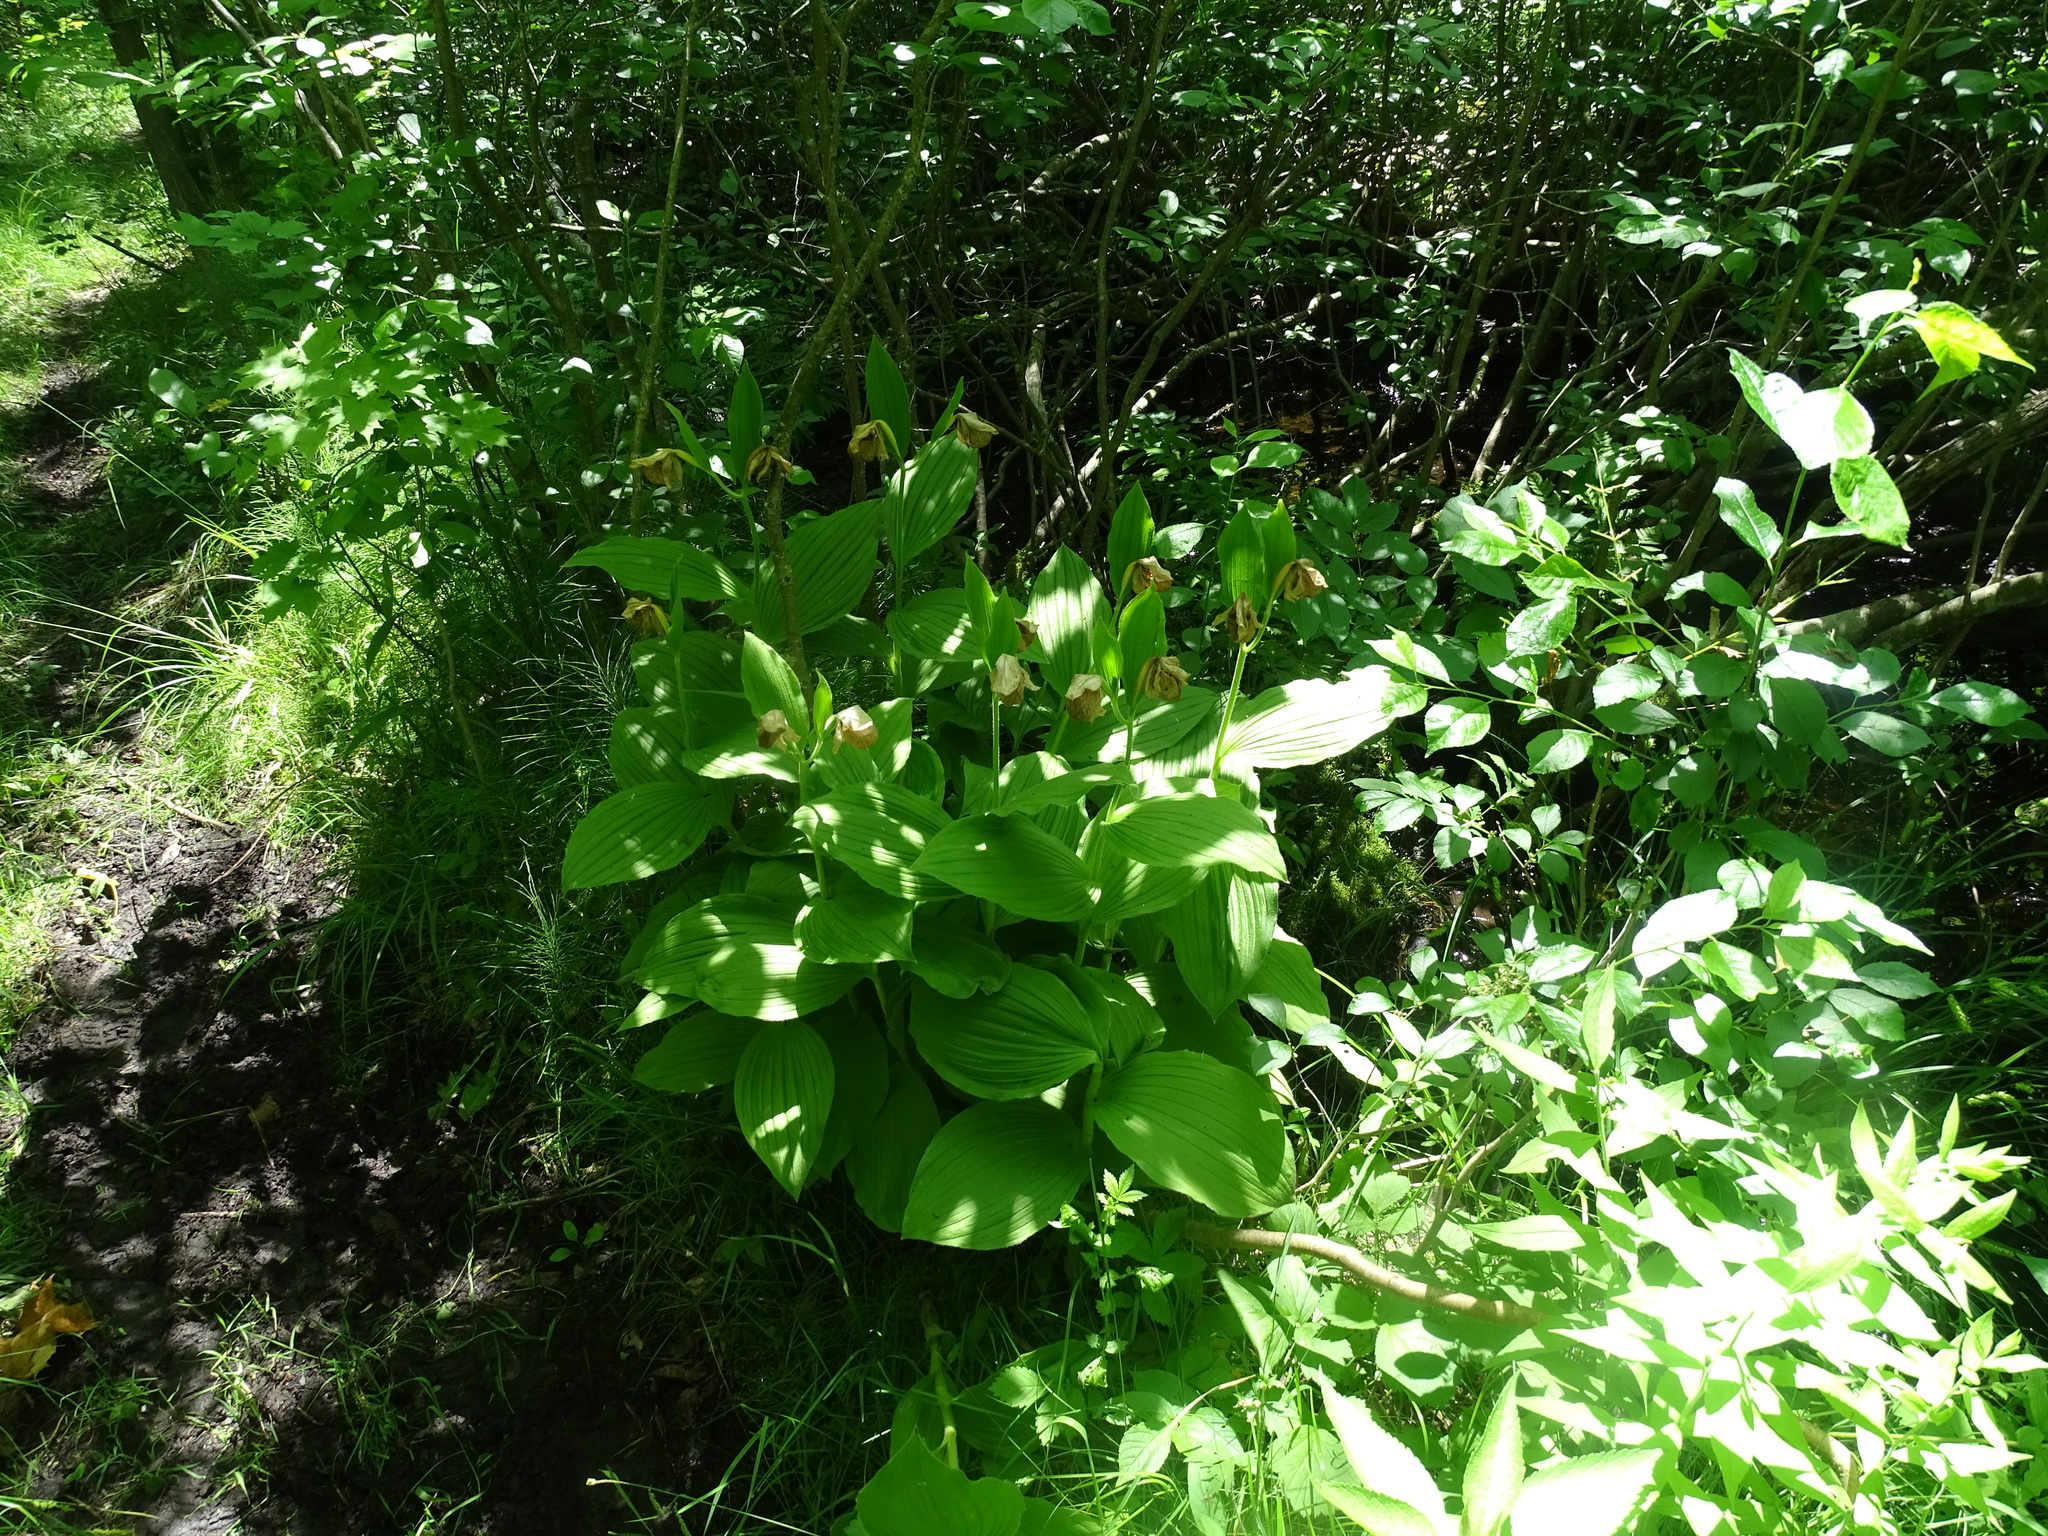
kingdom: Plantae
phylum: Tracheophyta
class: Liliopsida
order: Asparagales
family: Orchidaceae
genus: Cypripedium
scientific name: Cypripedium reginae
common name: Queen lady's-slipper
